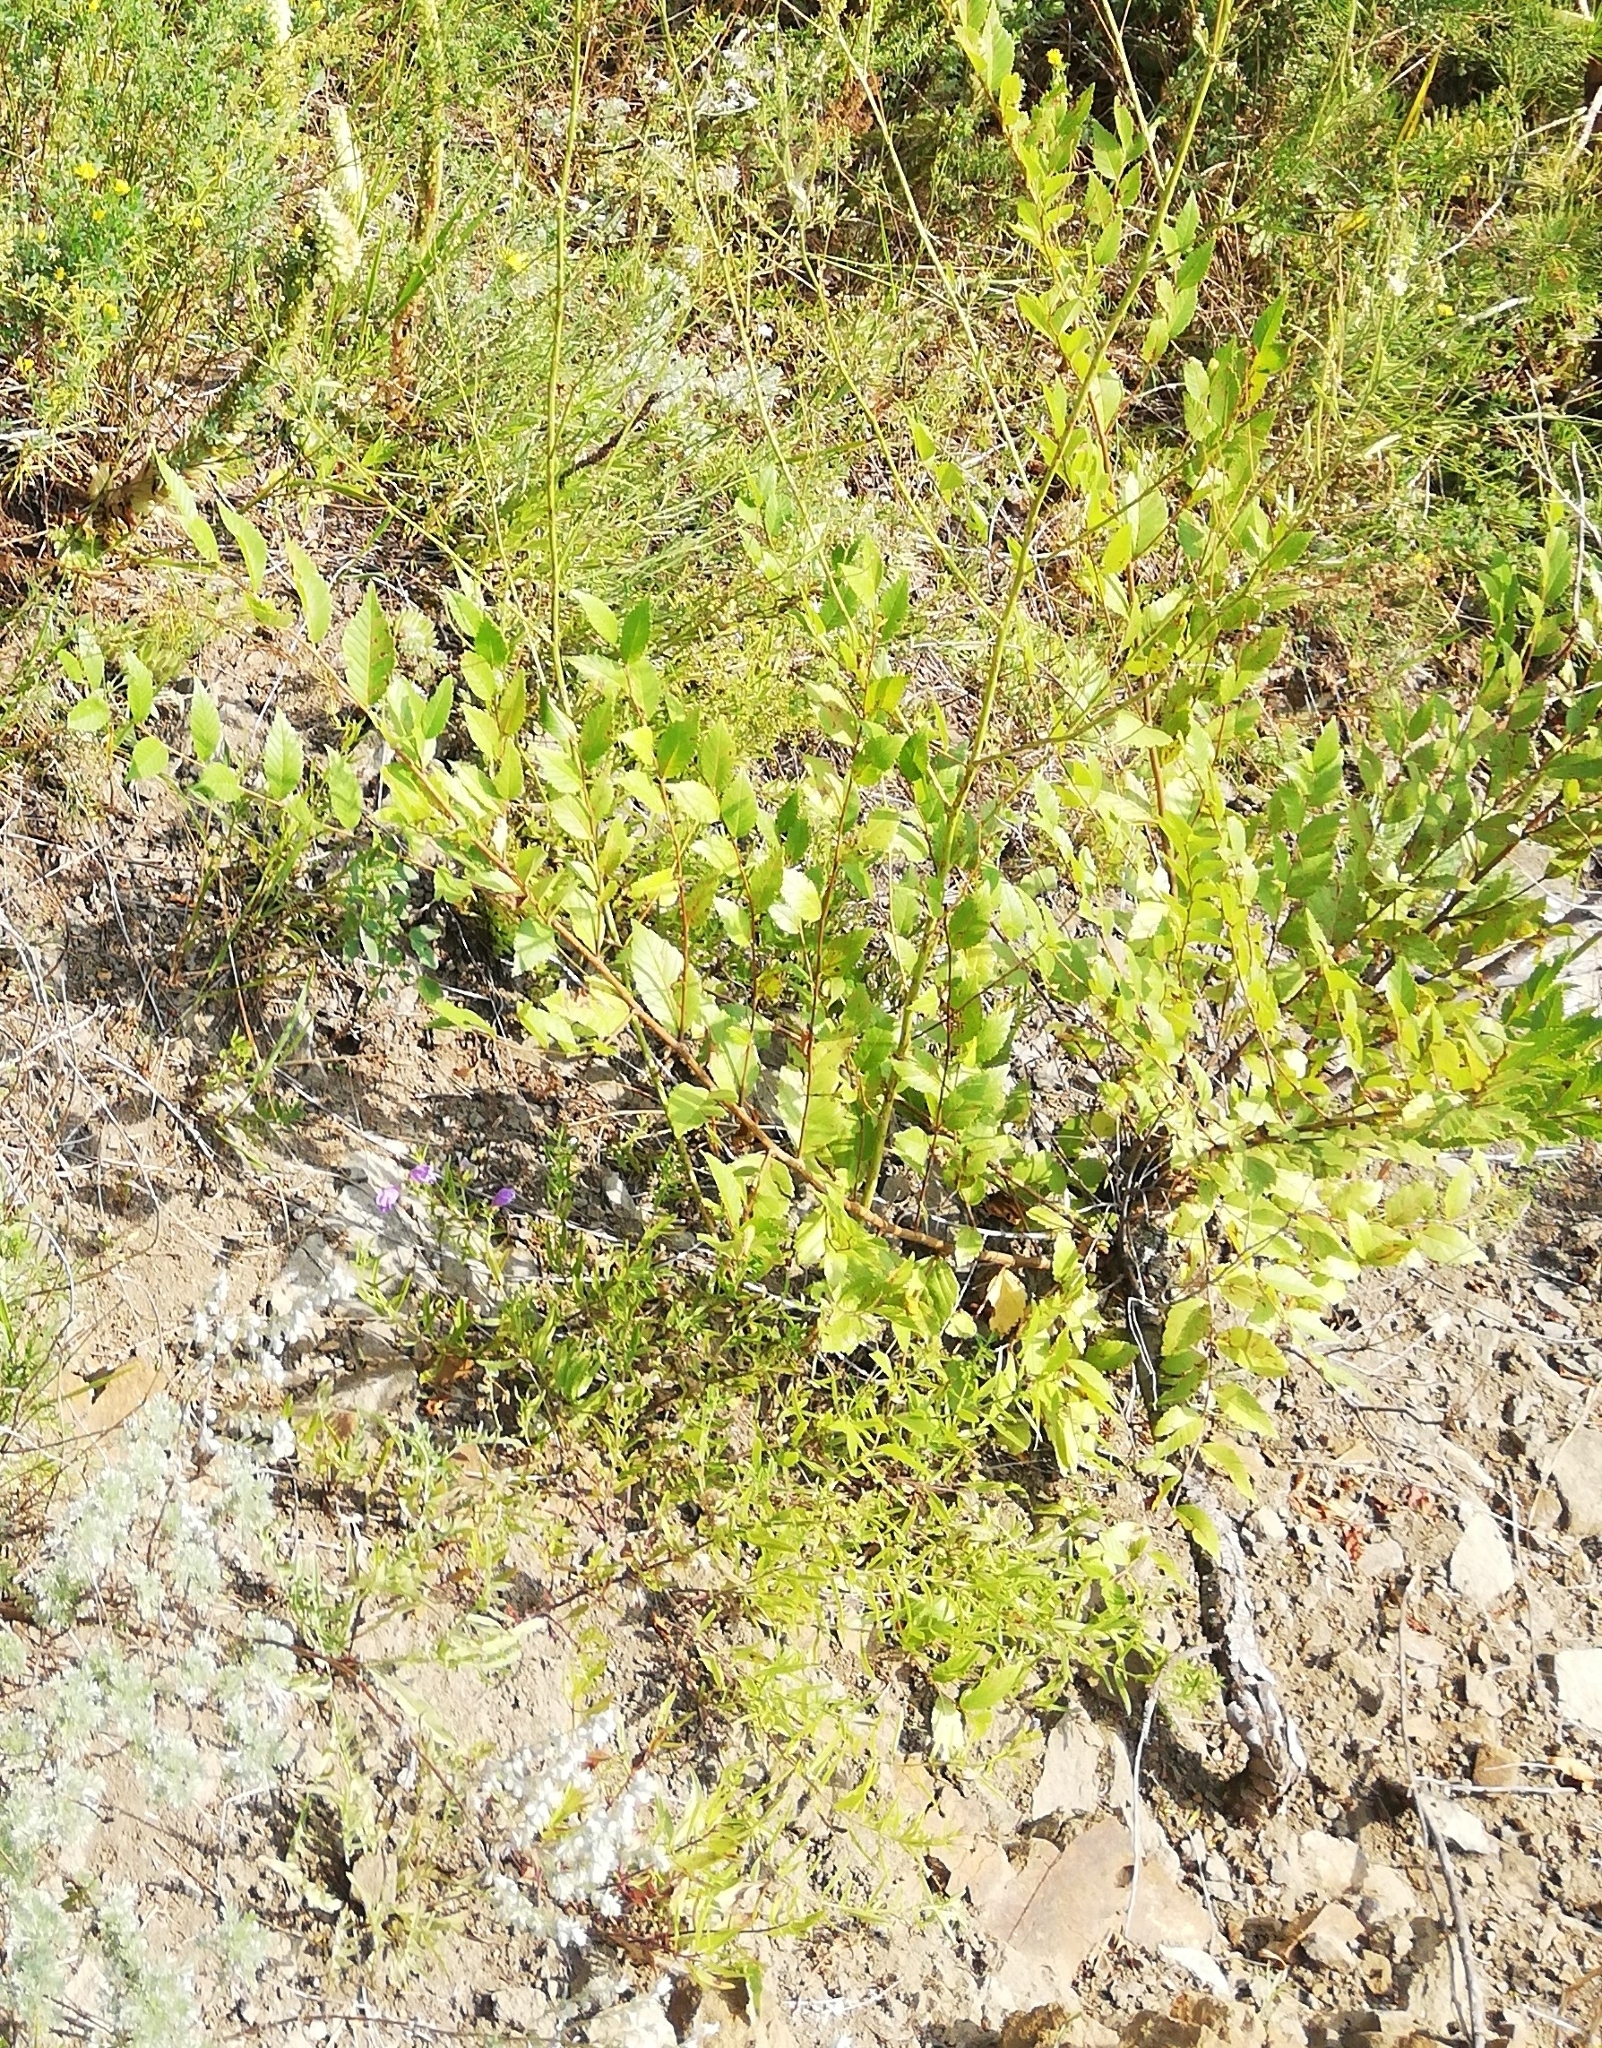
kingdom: Plantae
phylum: Tracheophyta
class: Magnoliopsida
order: Rosales
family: Ulmaceae
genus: Ulmus
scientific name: Ulmus pumila
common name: Siberian elm
